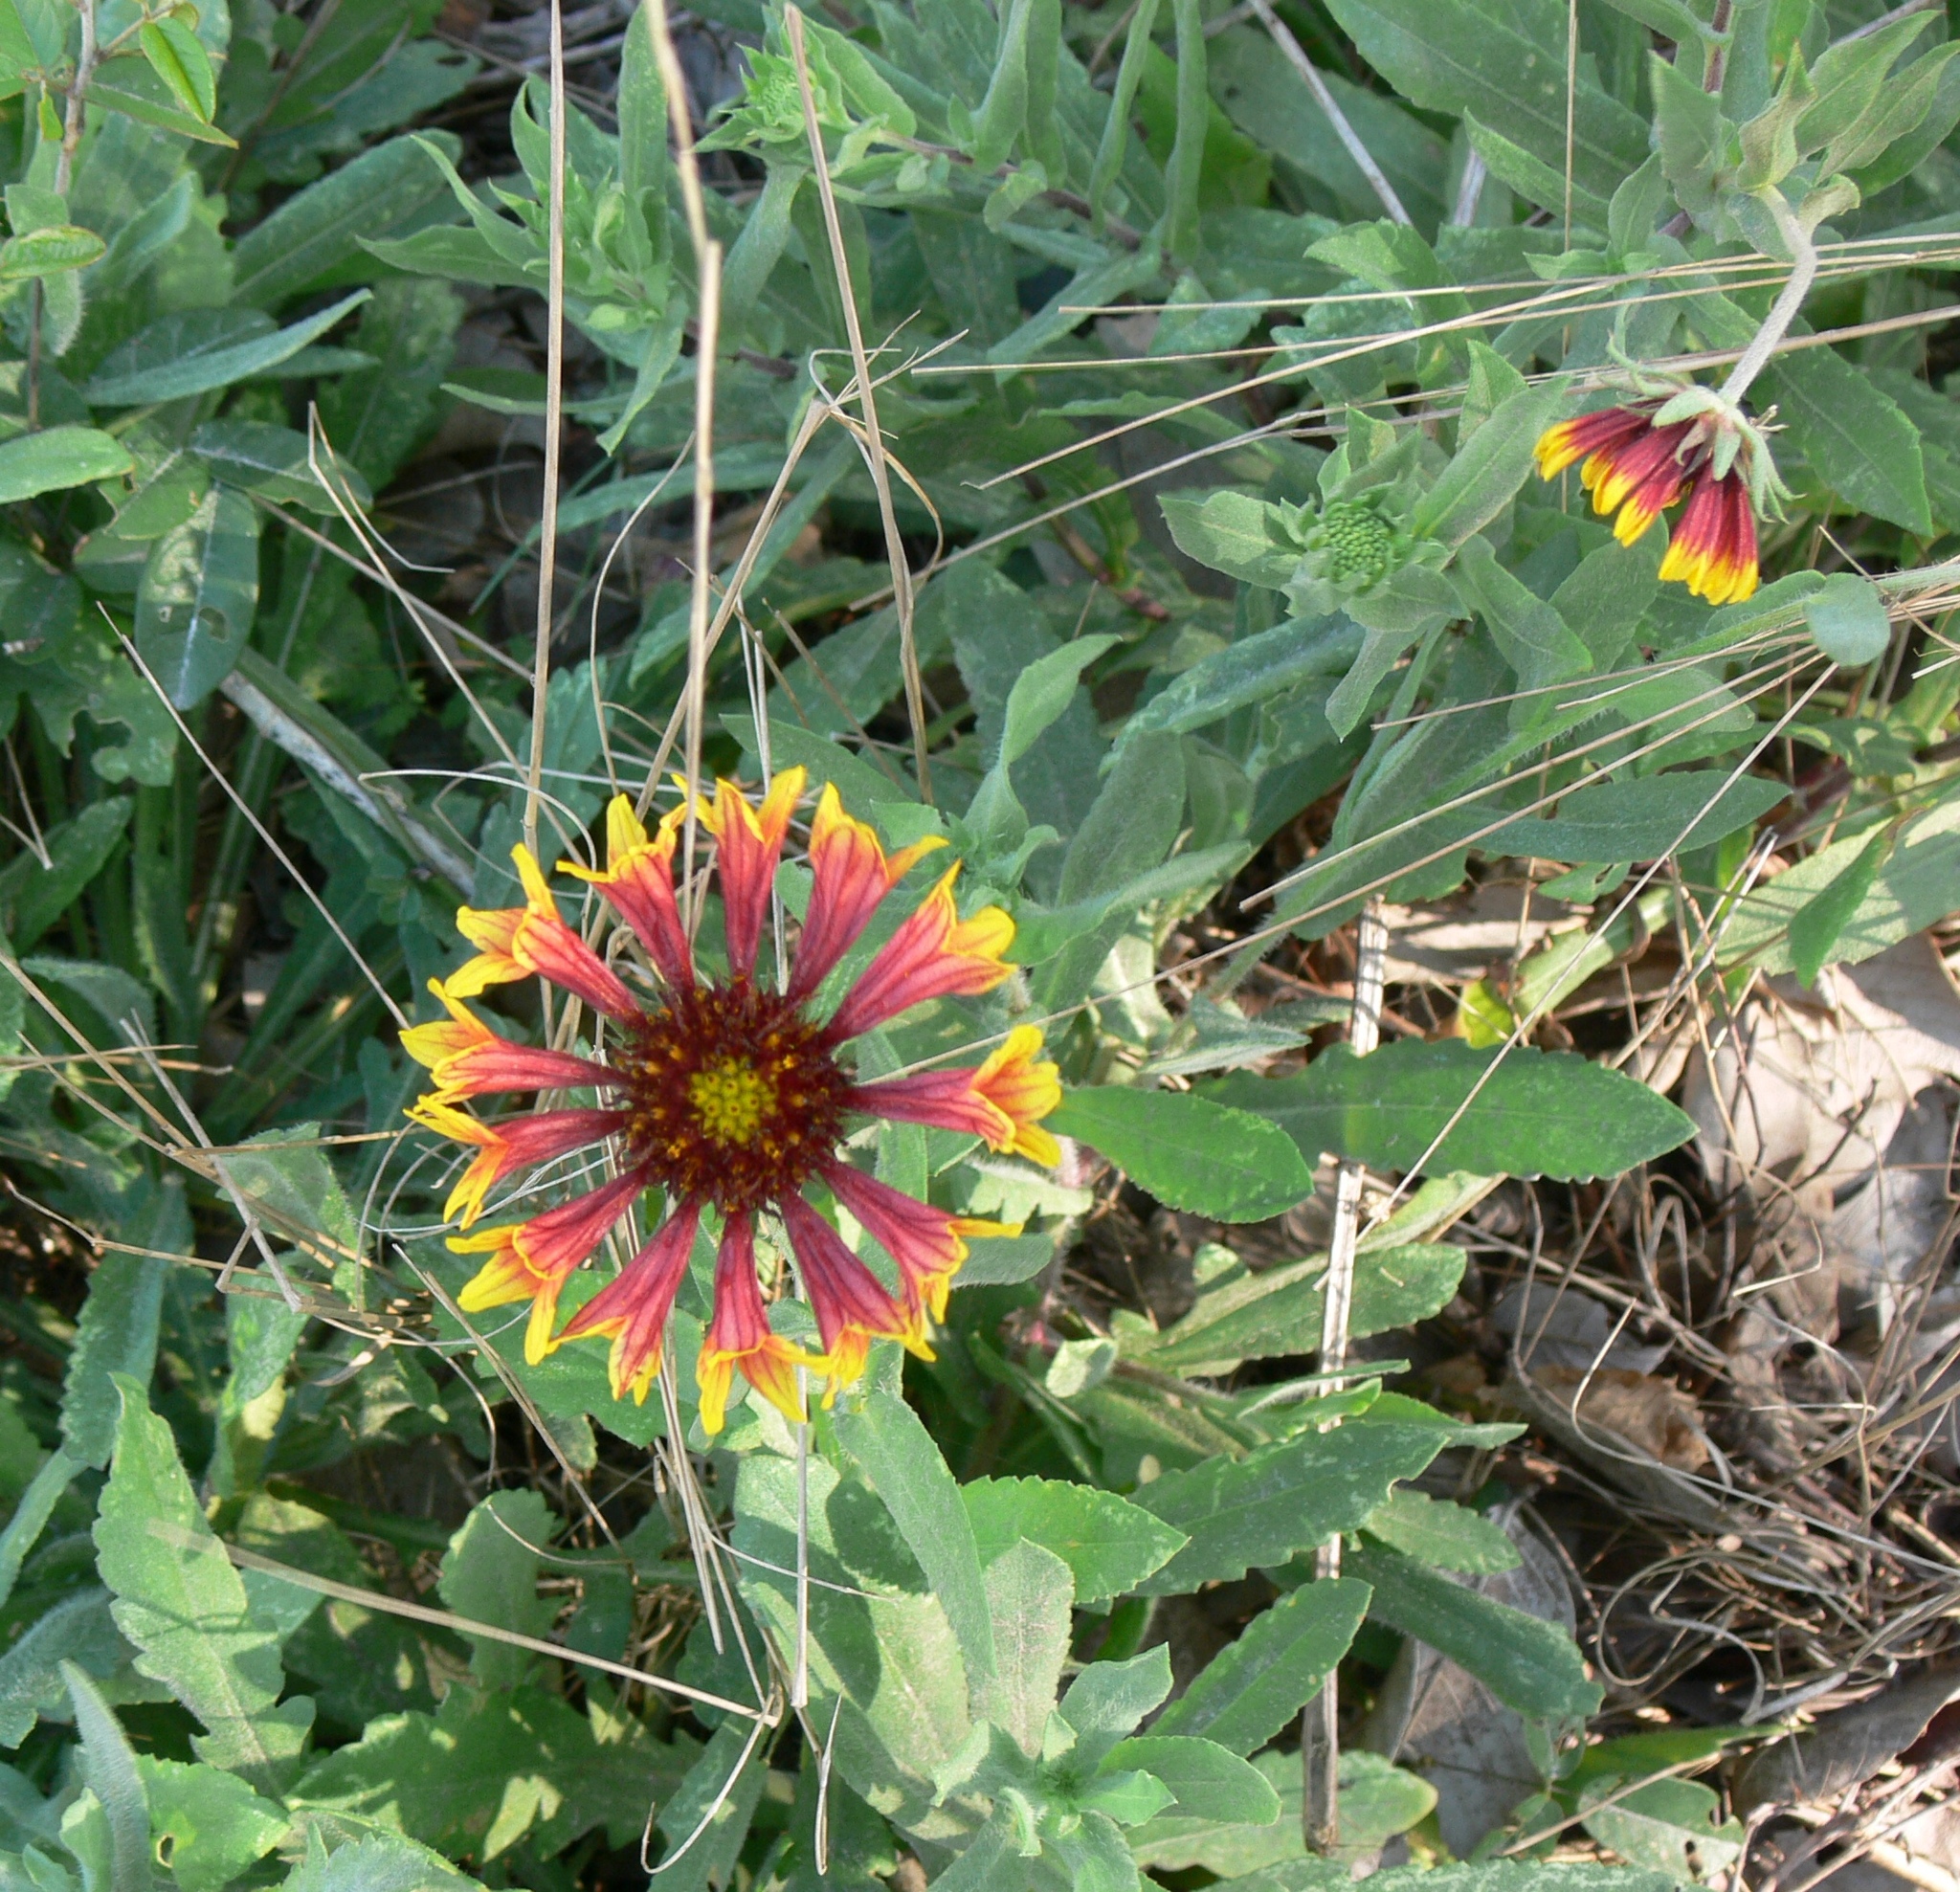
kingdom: Plantae
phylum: Tracheophyta
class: Magnoliopsida
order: Asterales
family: Asteraceae
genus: Gaillardia
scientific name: Gaillardia pulchella
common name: Firewheel
